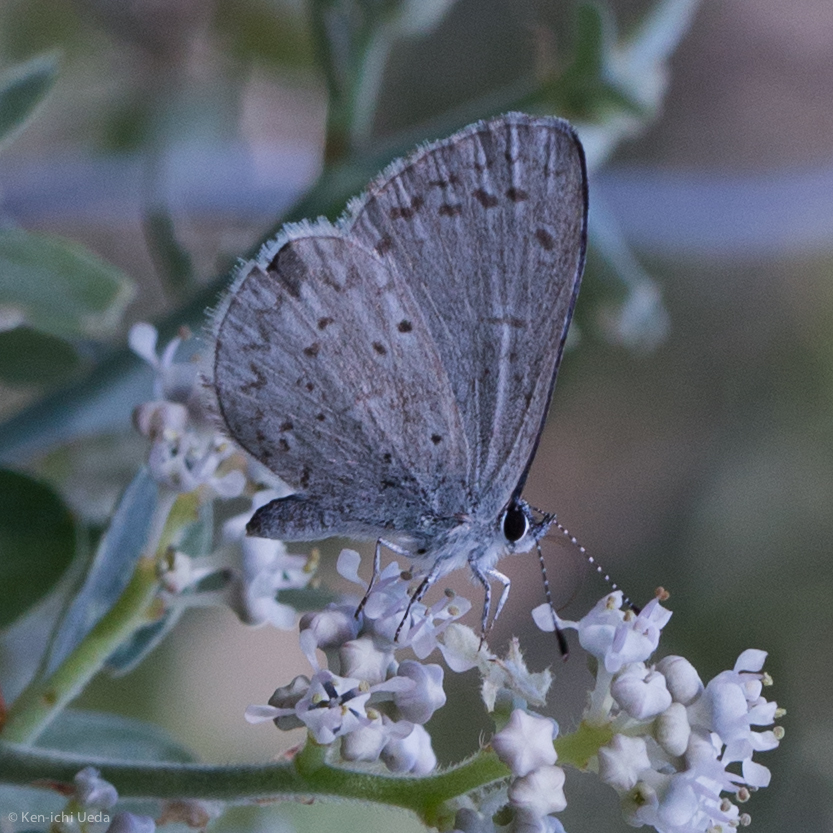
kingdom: Animalia
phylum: Arthropoda
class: Insecta
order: Lepidoptera
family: Lycaenidae
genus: Celastrina
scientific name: Celastrina argiolus
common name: Holly blue
